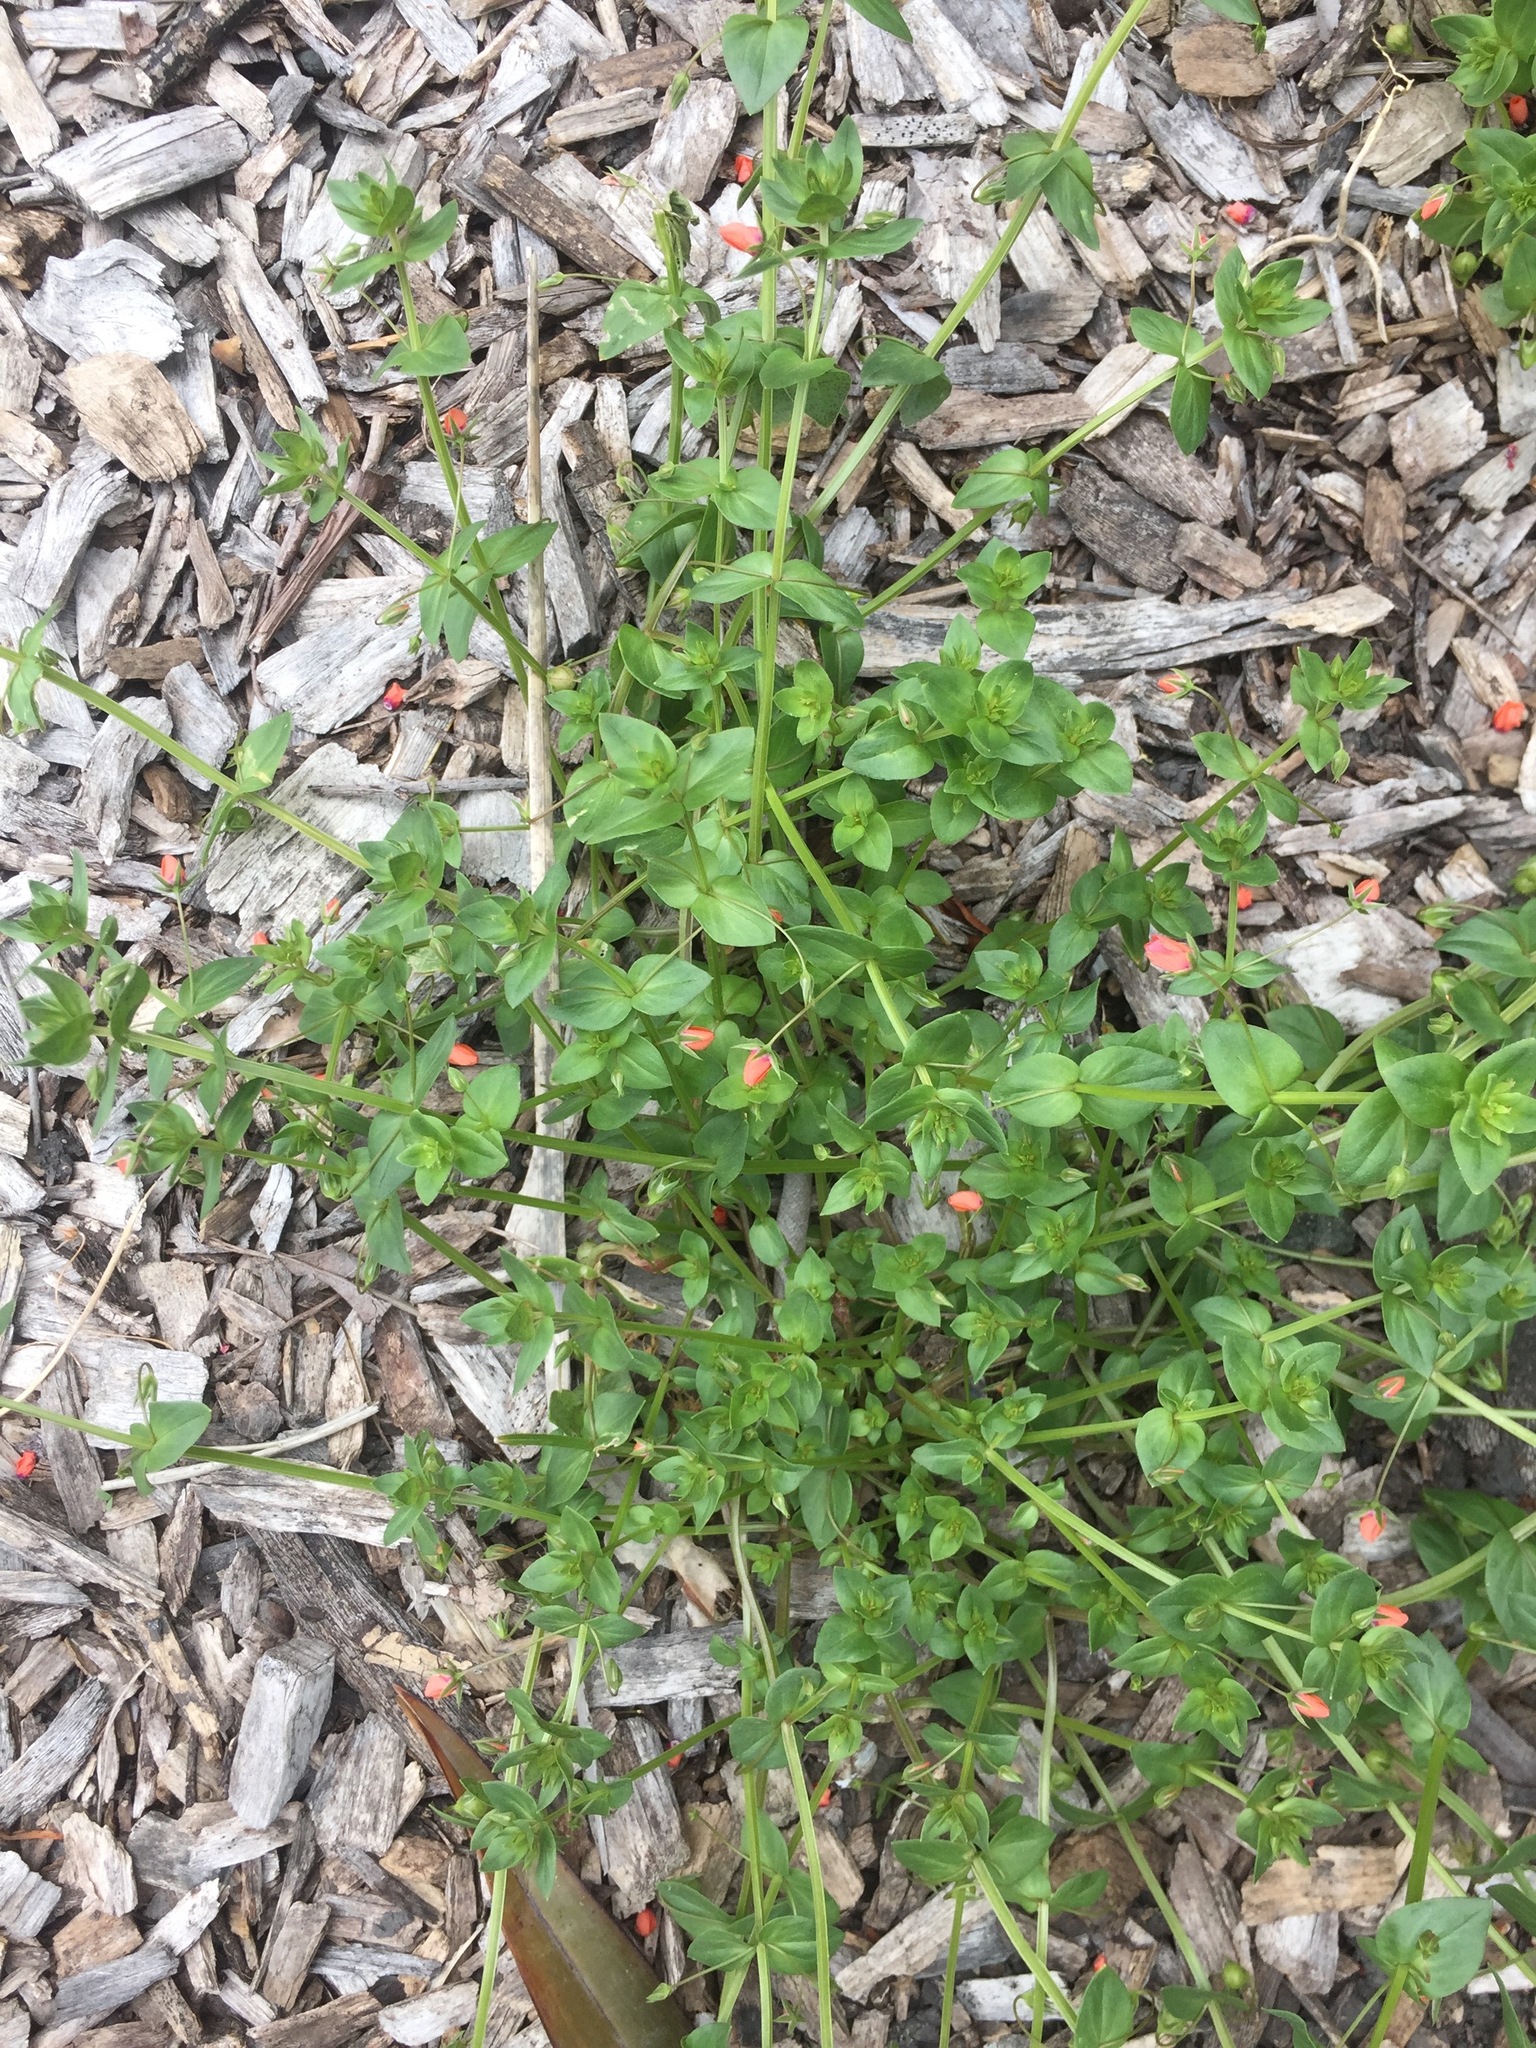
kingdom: Plantae
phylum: Tracheophyta
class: Magnoliopsida
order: Ericales
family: Primulaceae
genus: Lysimachia
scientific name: Lysimachia arvensis
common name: Scarlet pimpernel
